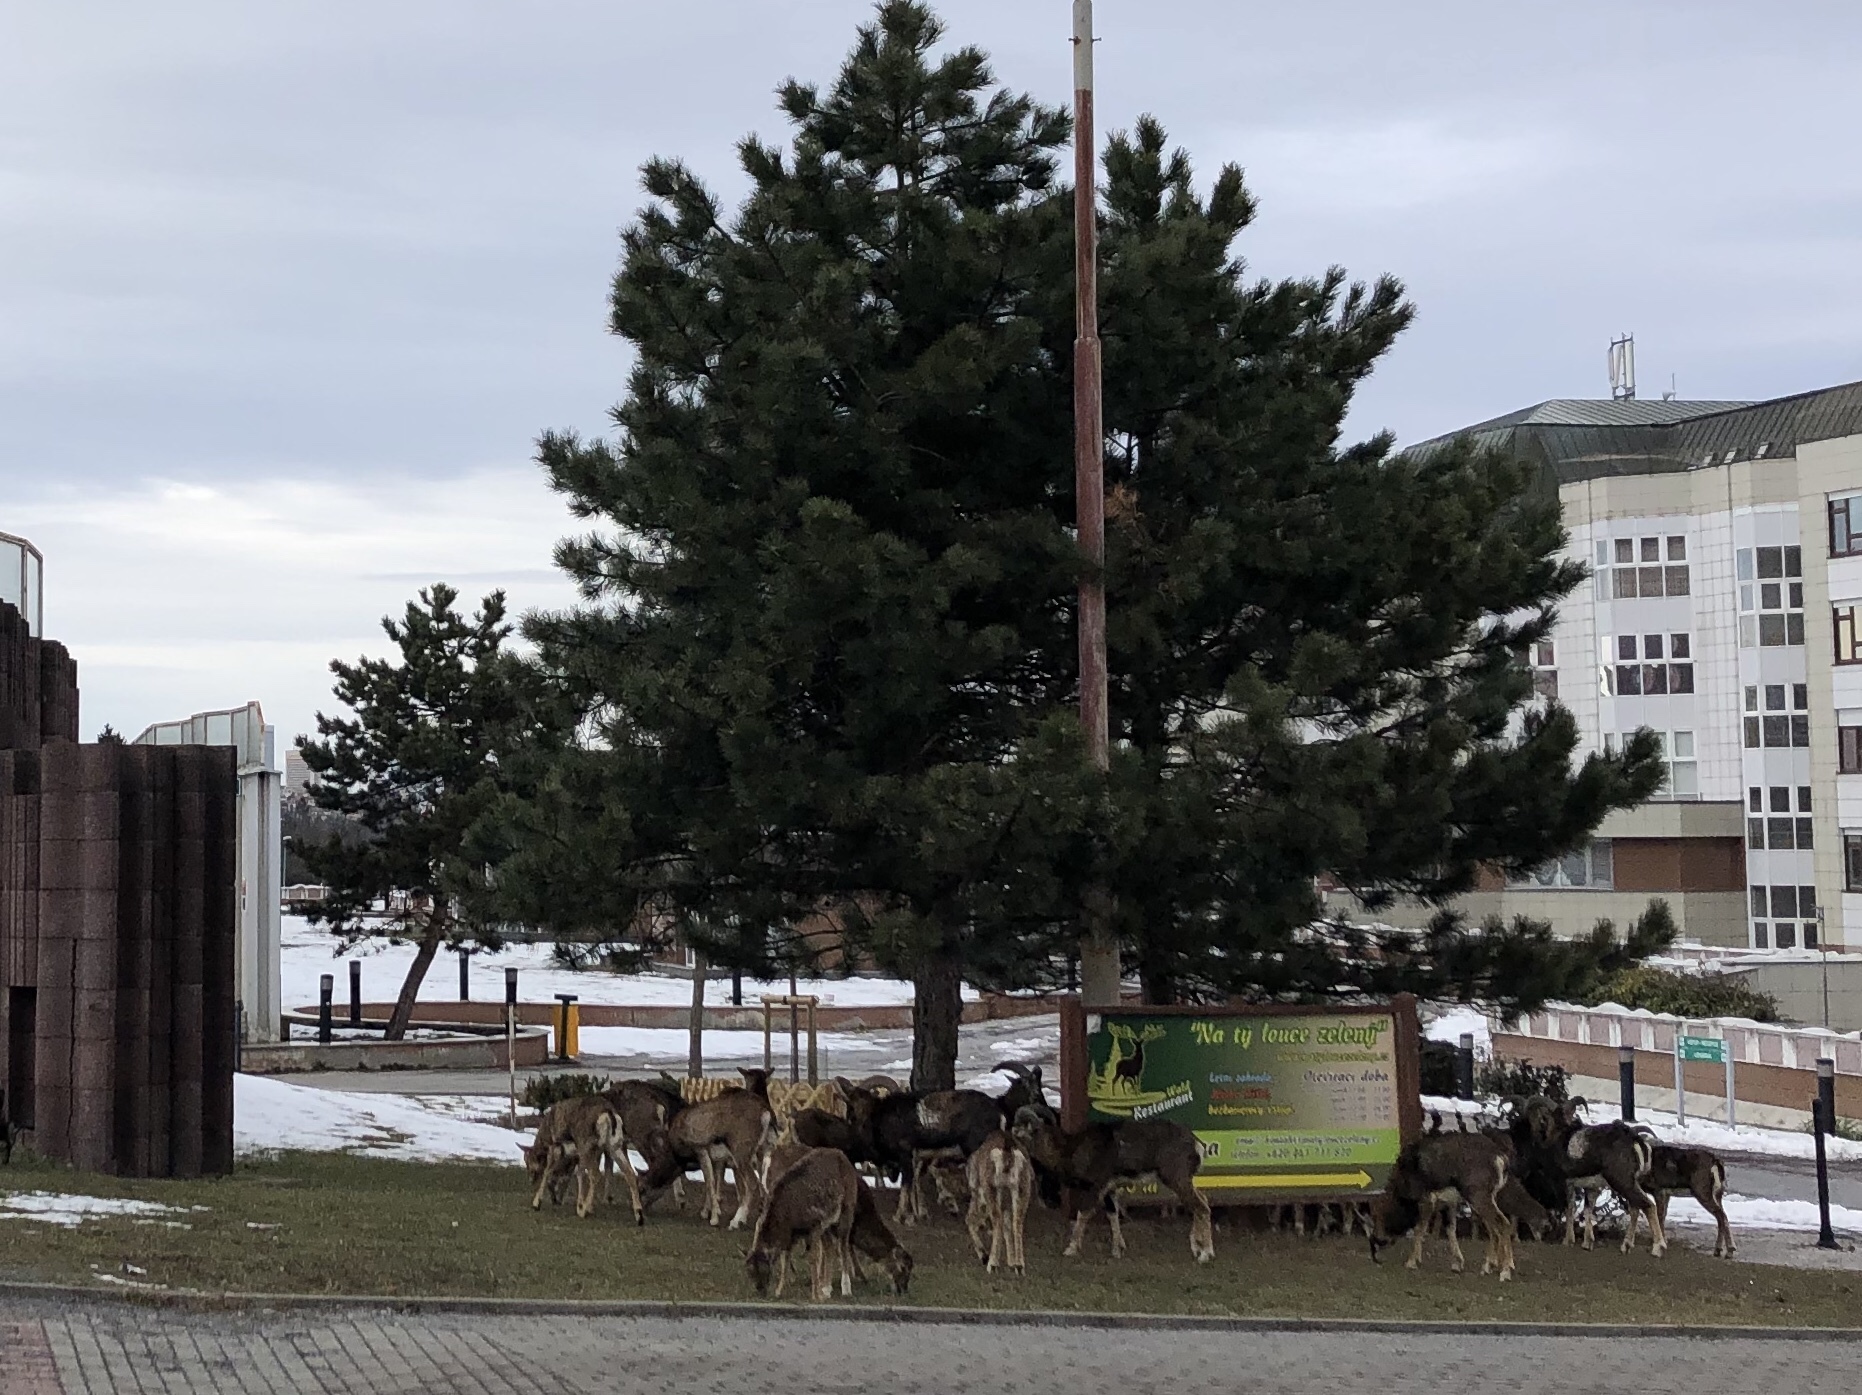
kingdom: Animalia
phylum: Chordata
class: Mammalia
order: Artiodactyla
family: Bovidae
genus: Ovis
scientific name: Ovis aries
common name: Domestic sheep
